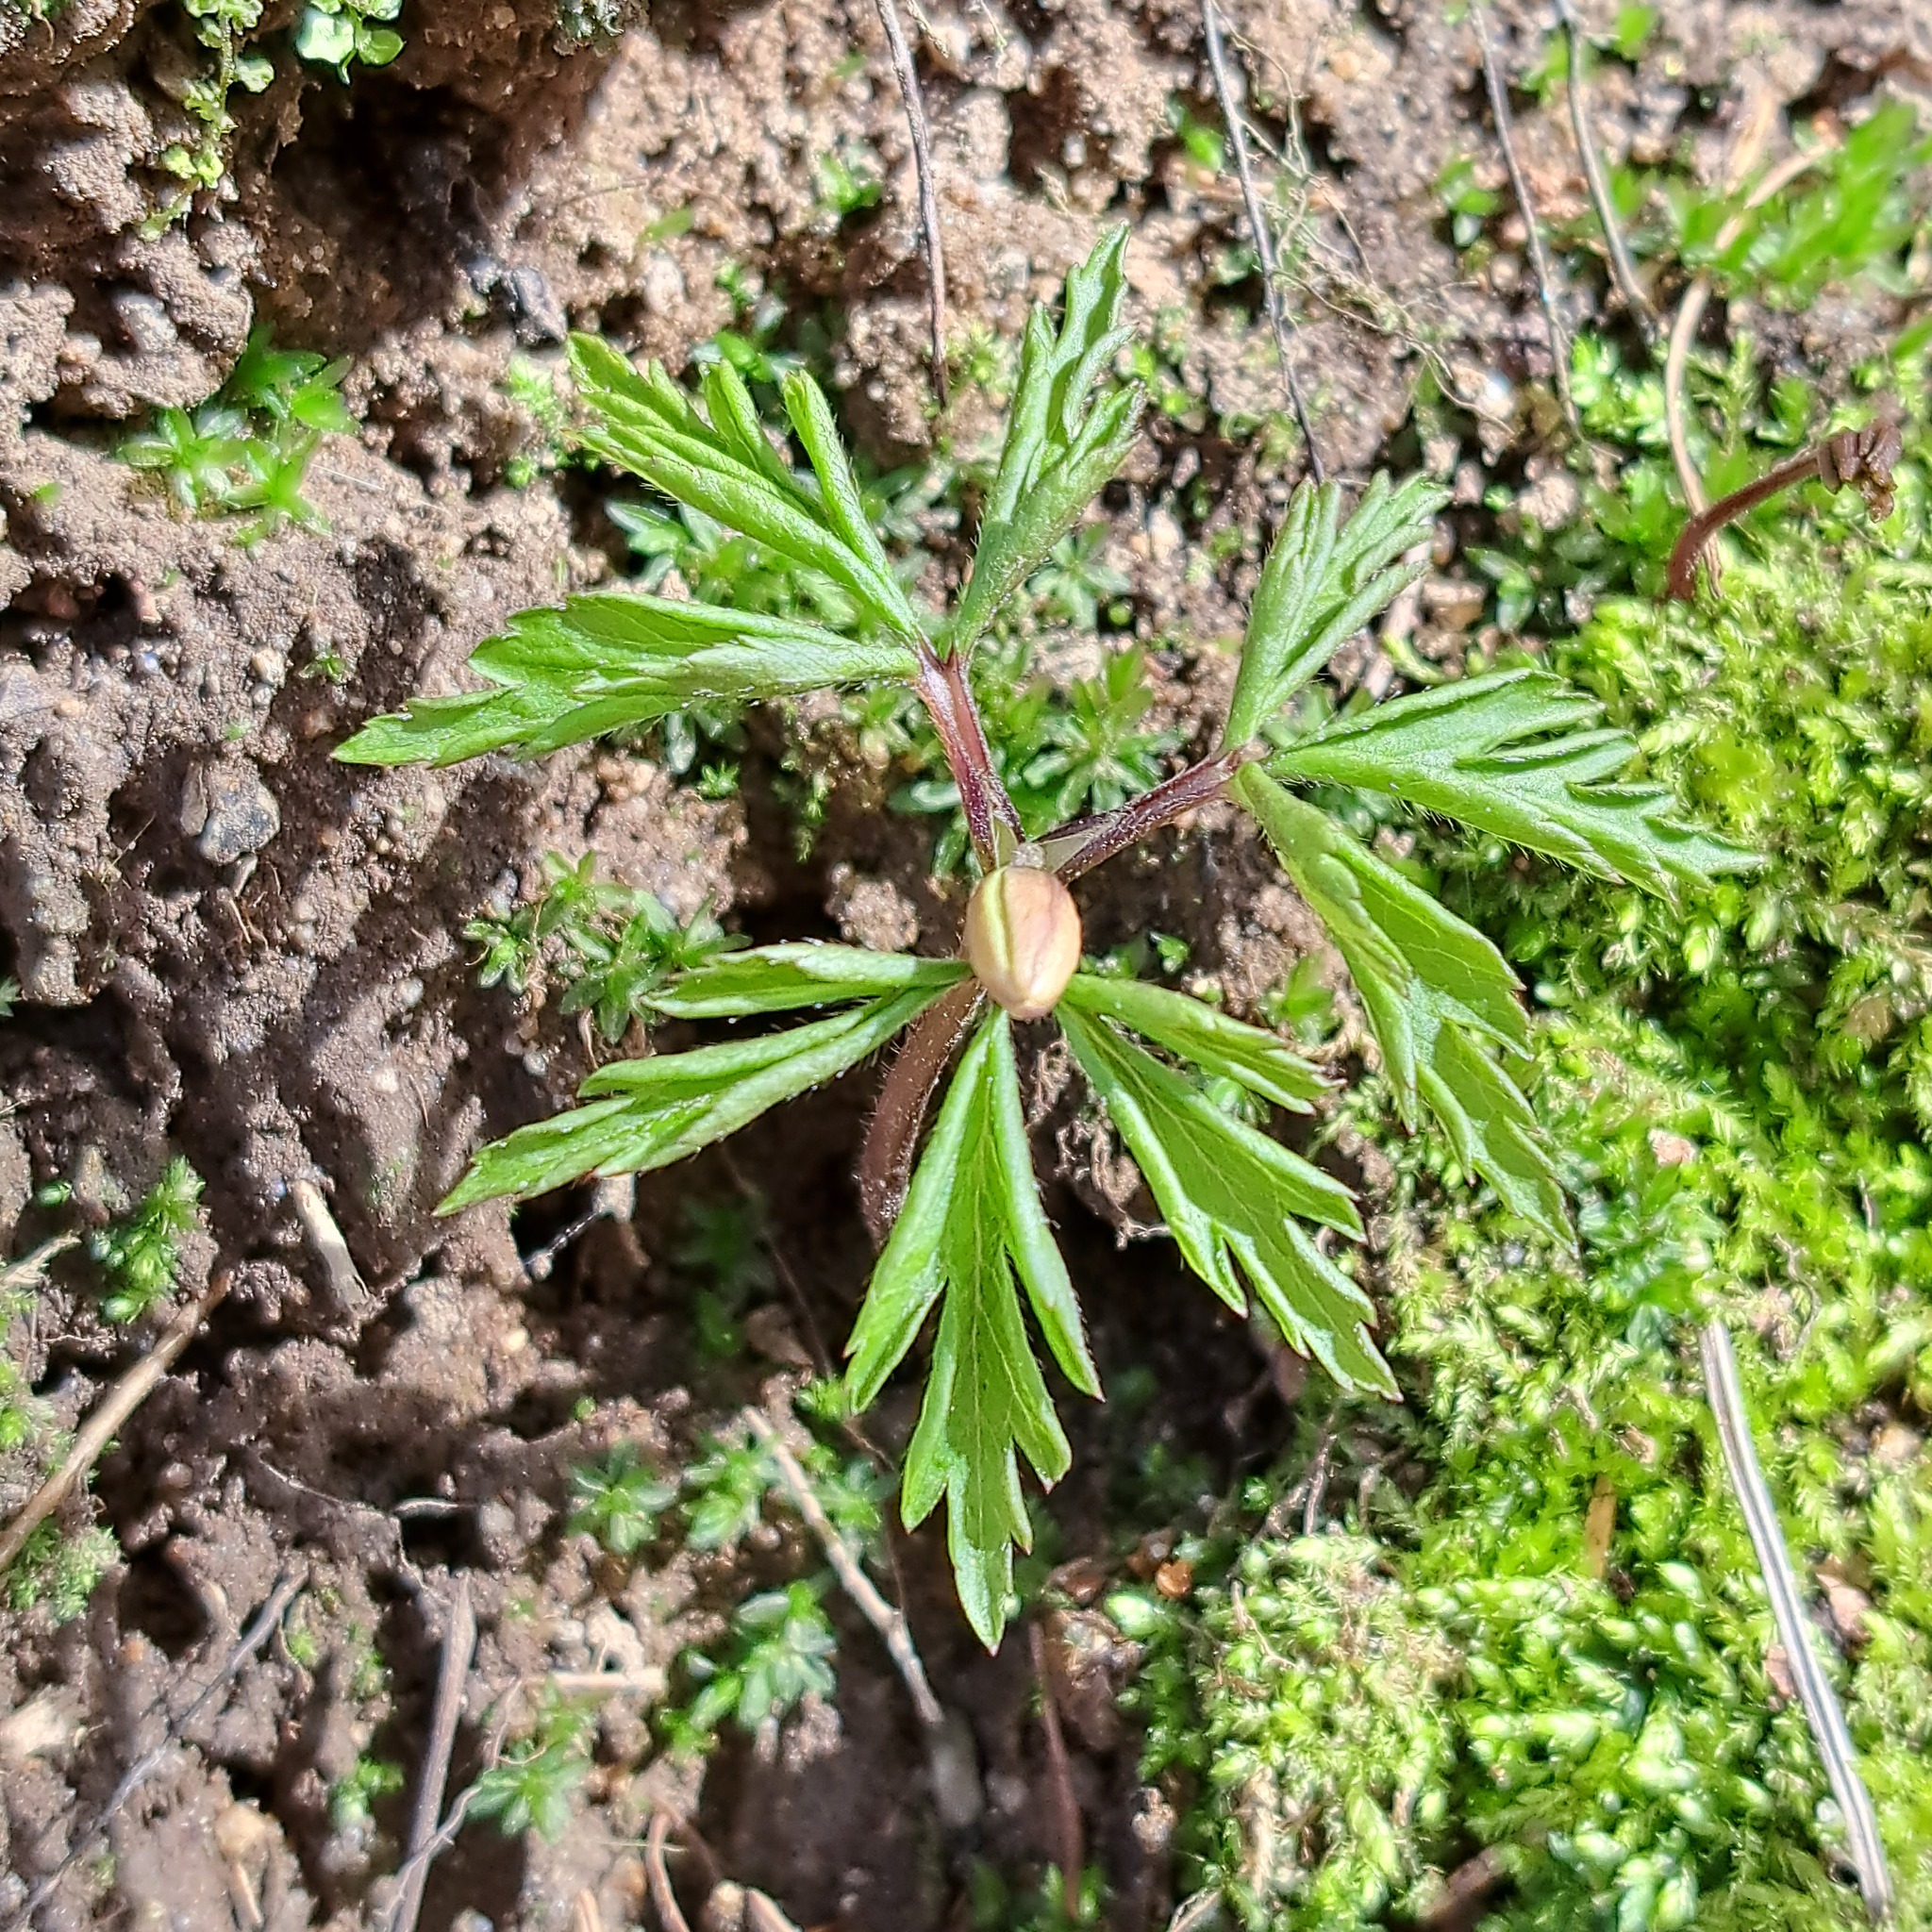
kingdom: Plantae
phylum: Tracheophyta
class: Magnoliopsida
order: Ranunculales
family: Ranunculaceae
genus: Anemone
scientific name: Anemone nemorosa
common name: Wood anemone
